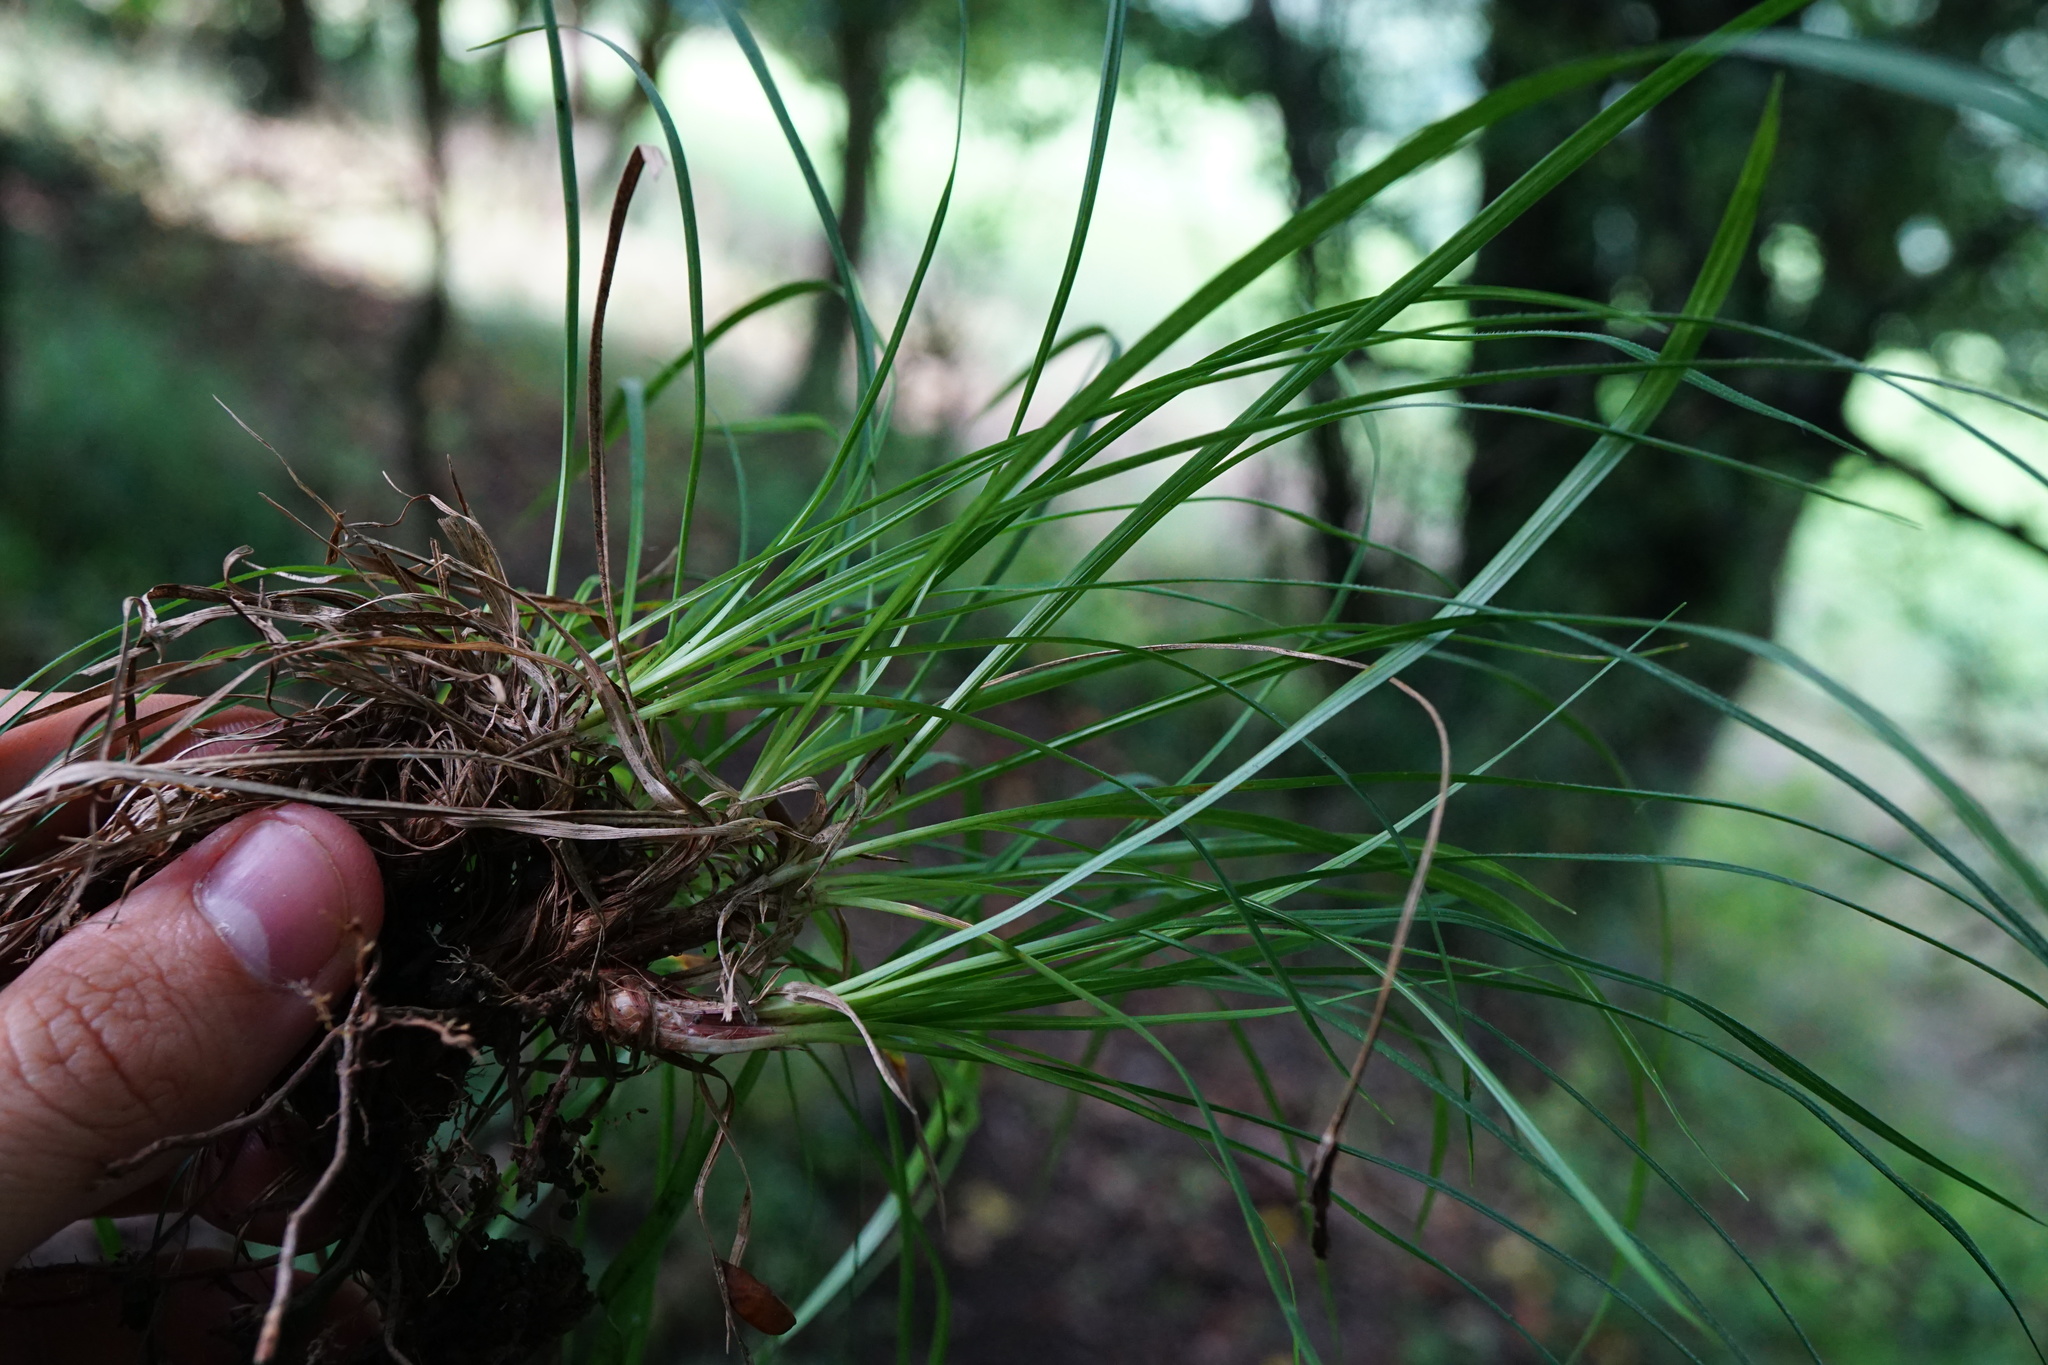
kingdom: Plantae
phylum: Tracheophyta
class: Liliopsida
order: Poales
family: Cyperaceae
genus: Carex
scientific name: Carex montana
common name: Soft-leaved sedge
